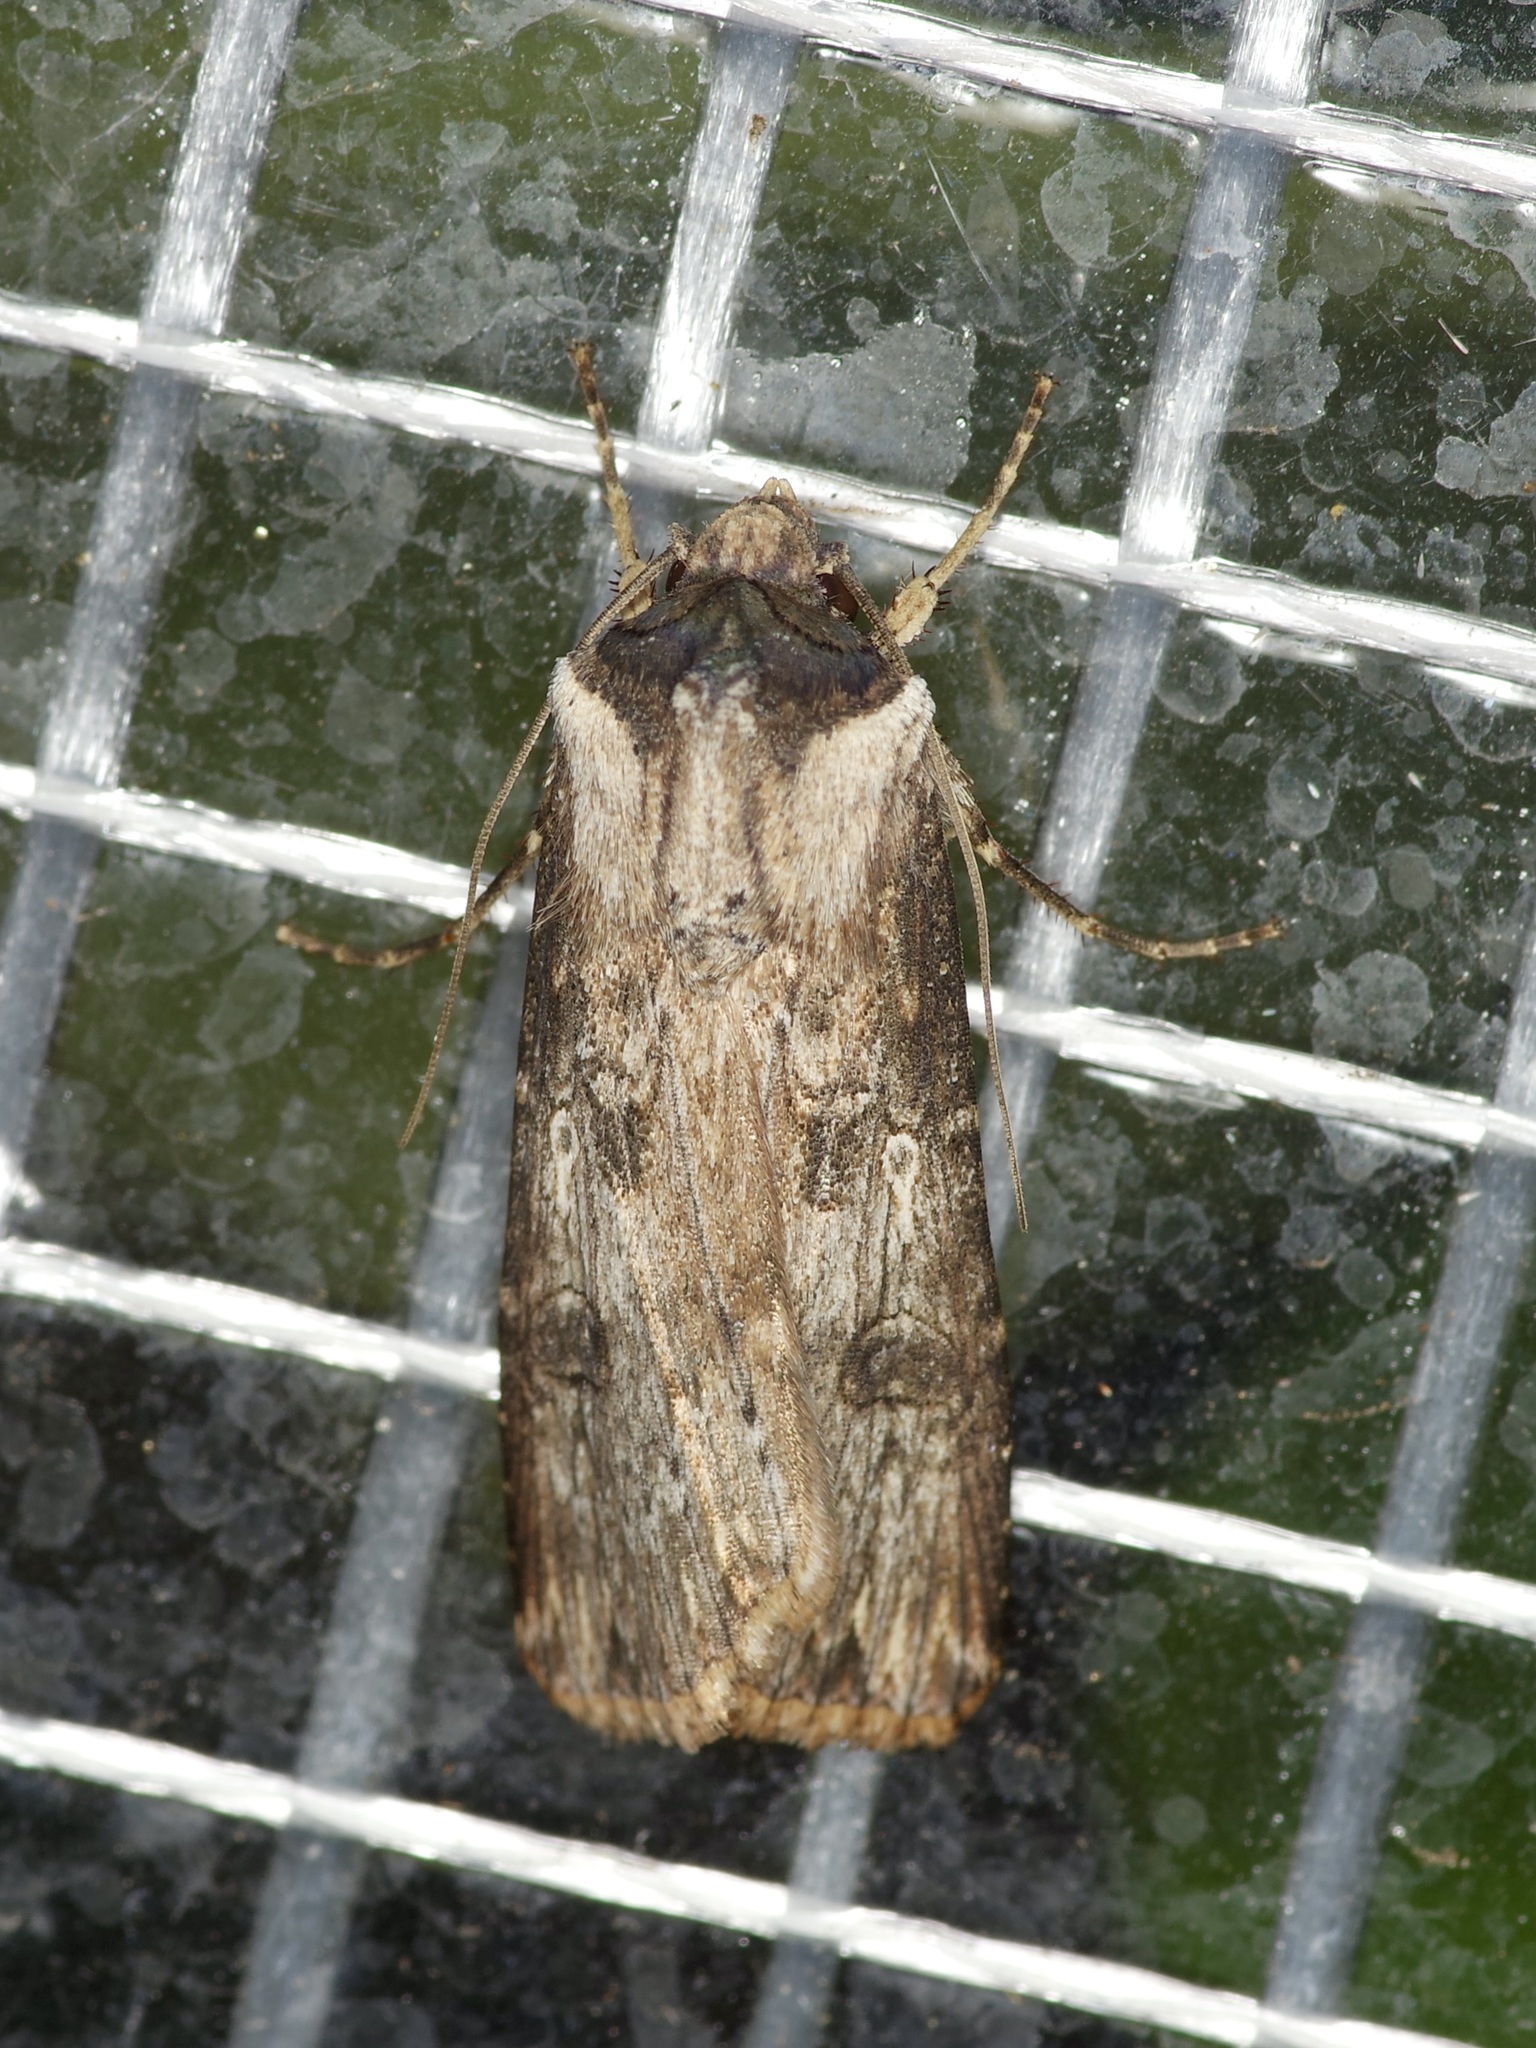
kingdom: Animalia
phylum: Arthropoda
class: Insecta
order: Lepidoptera
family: Noctuidae
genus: Agrotis
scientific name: Agrotis malefida
